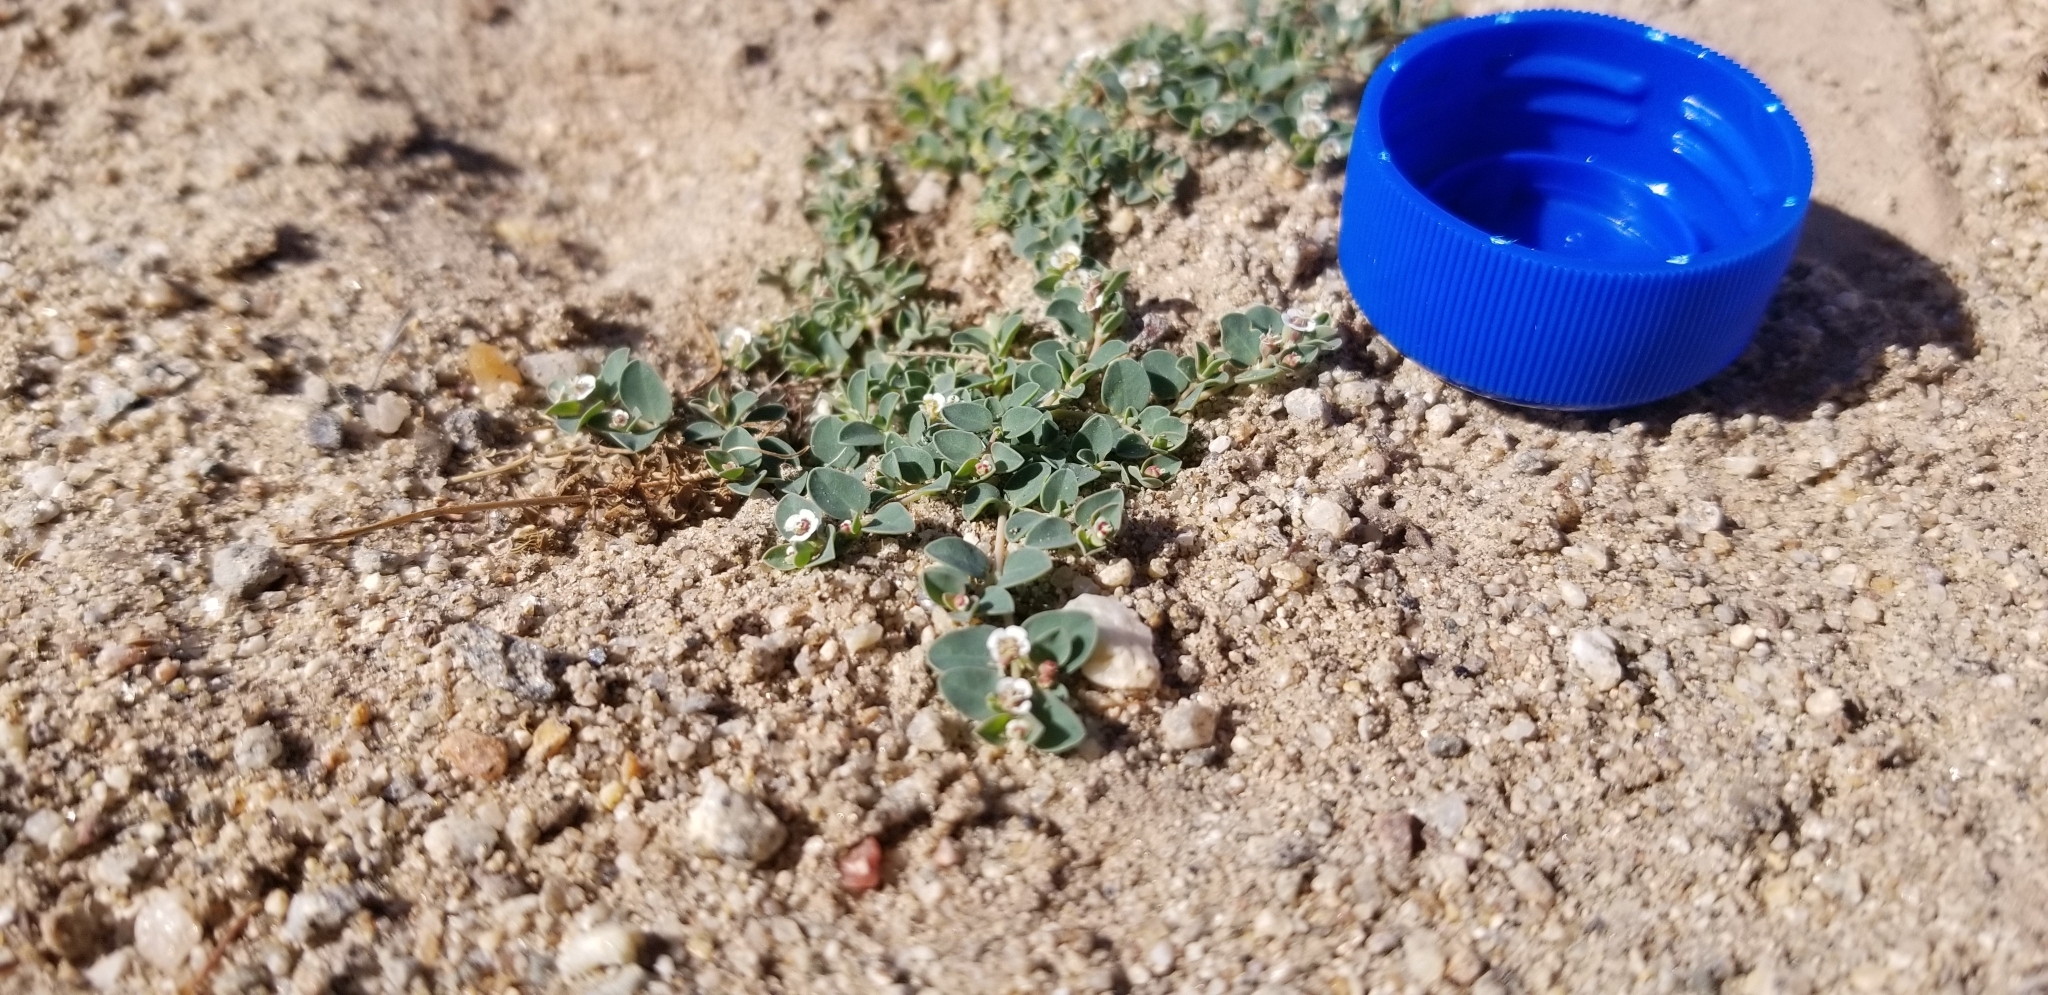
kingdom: Plantae
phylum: Tracheophyta
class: Magnoliopsida
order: Malpighiales
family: Euphorbiaceae
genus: Euphorbia
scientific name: Euphorbia albomarginata
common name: Whitemargin sandmat
